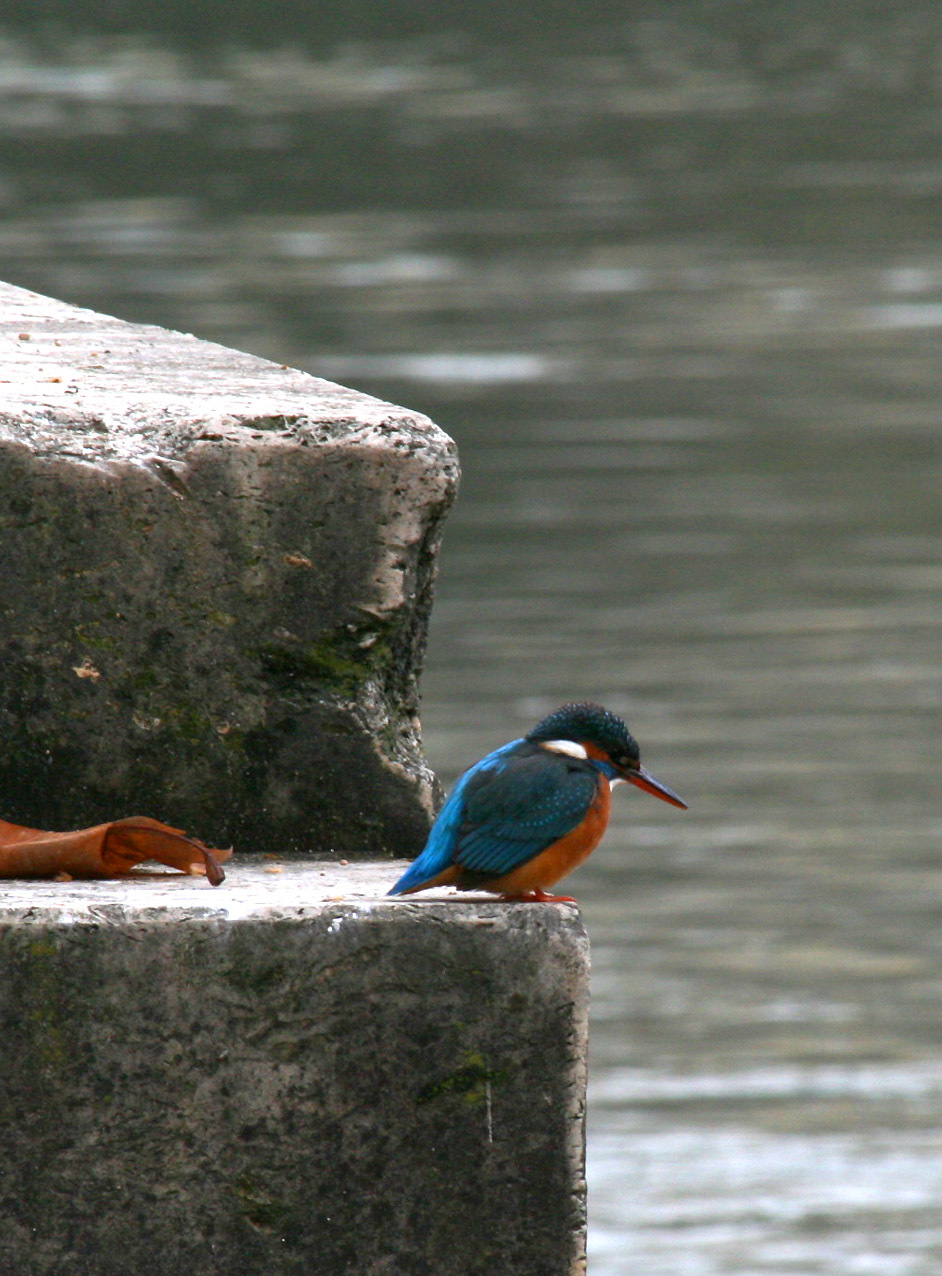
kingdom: Animalia
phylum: Chordata
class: Aves
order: Coraciiformes
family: Alcedinidae
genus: Alcedo
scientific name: Alcedo atthis
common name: Common kingfisher
